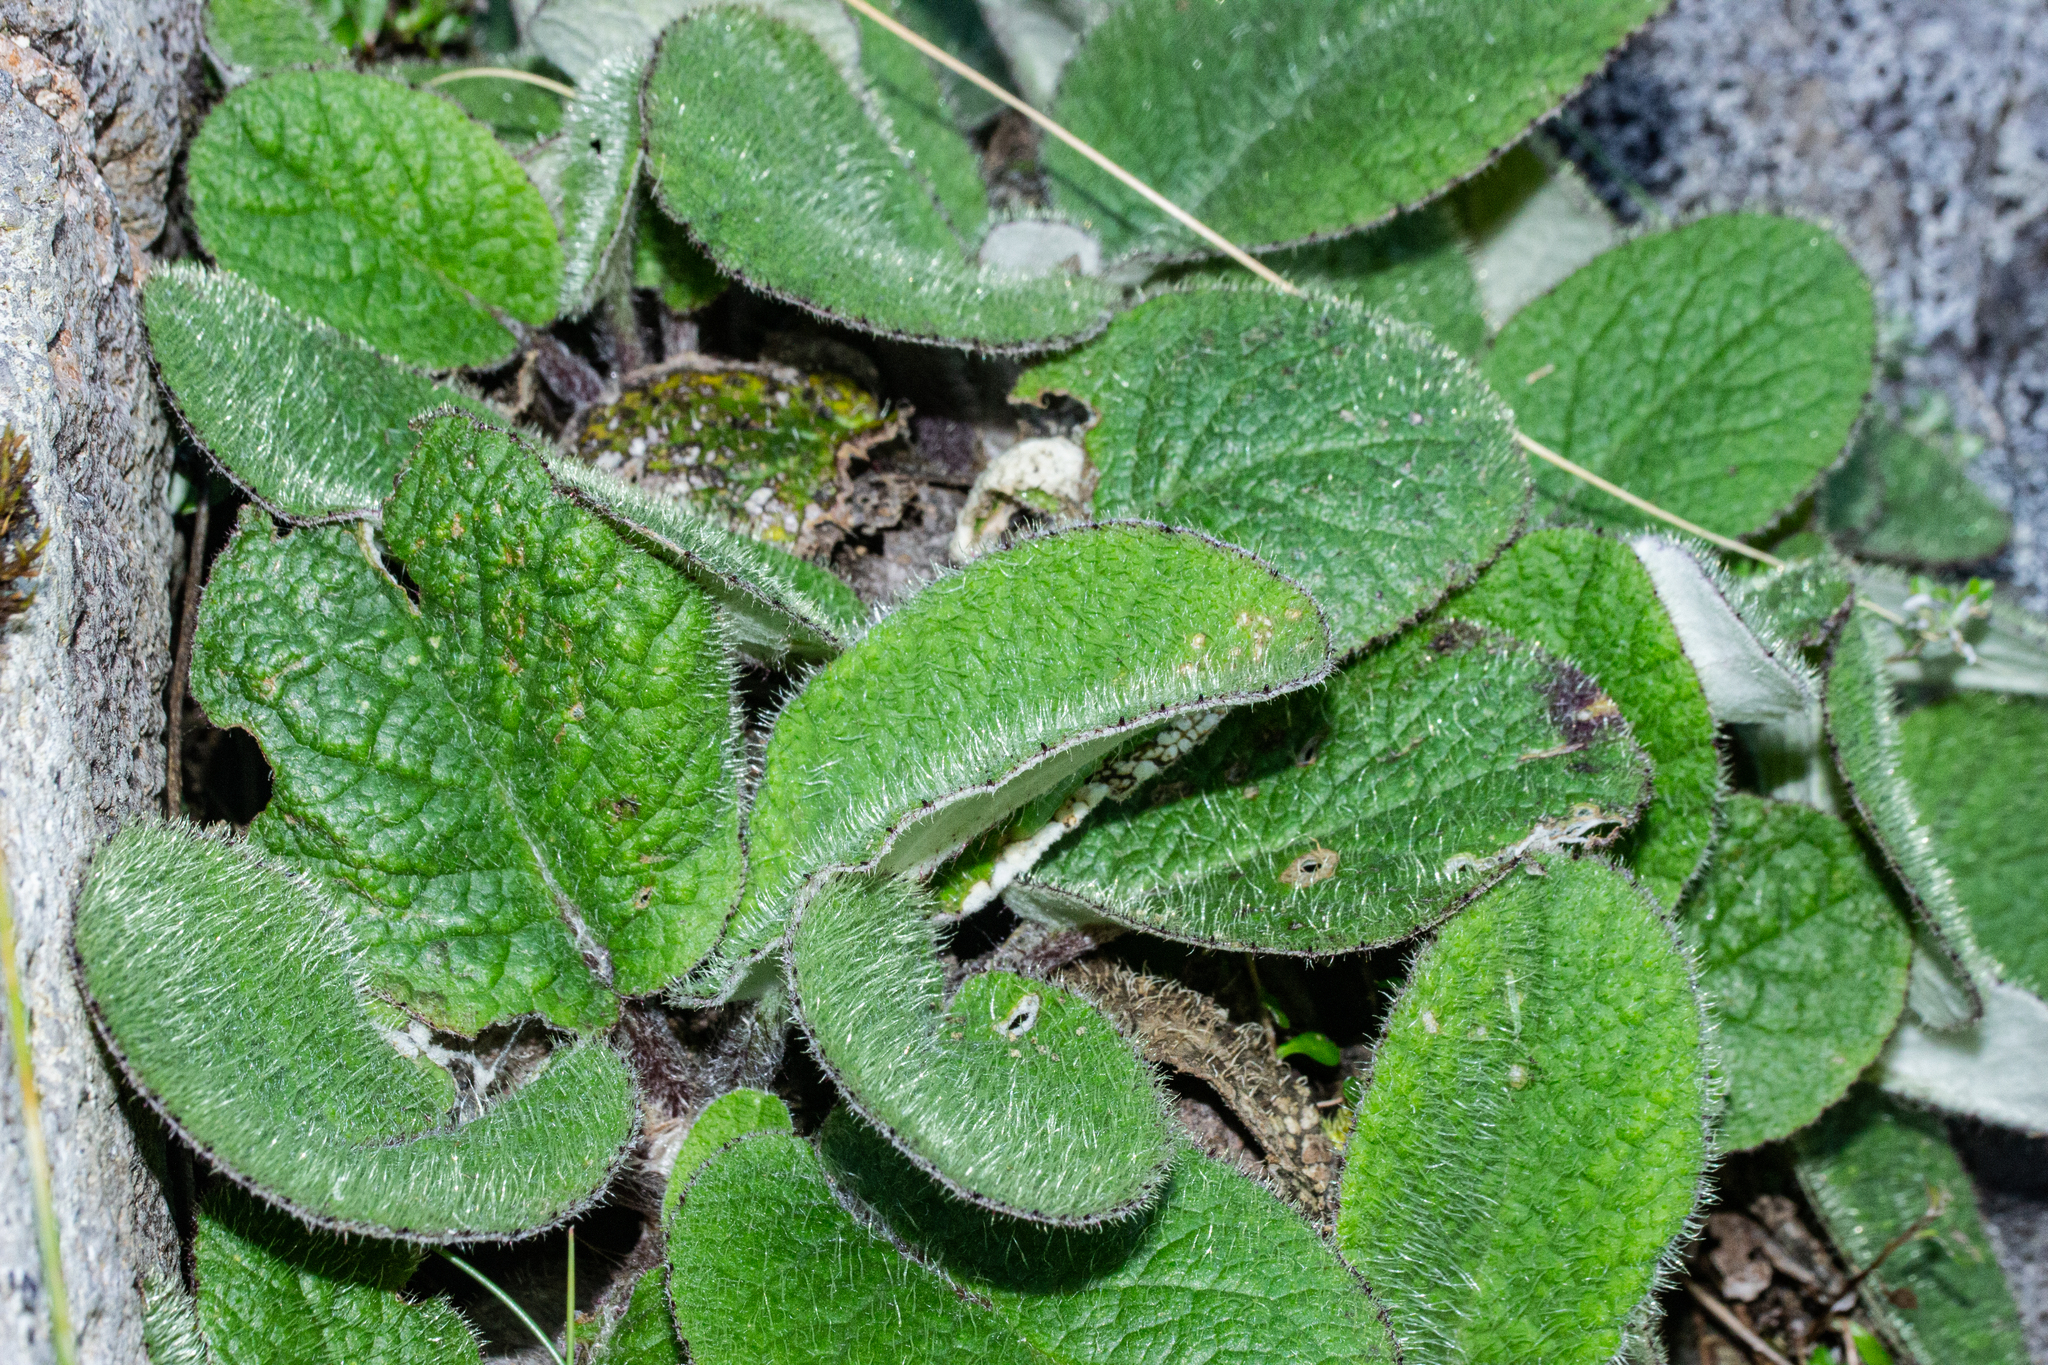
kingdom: Plantae
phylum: Tracheophyta
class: Magnoliopsida
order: Asterales
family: Asteraceae
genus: Brachyglottis
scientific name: Brachyglottis bellidioides
